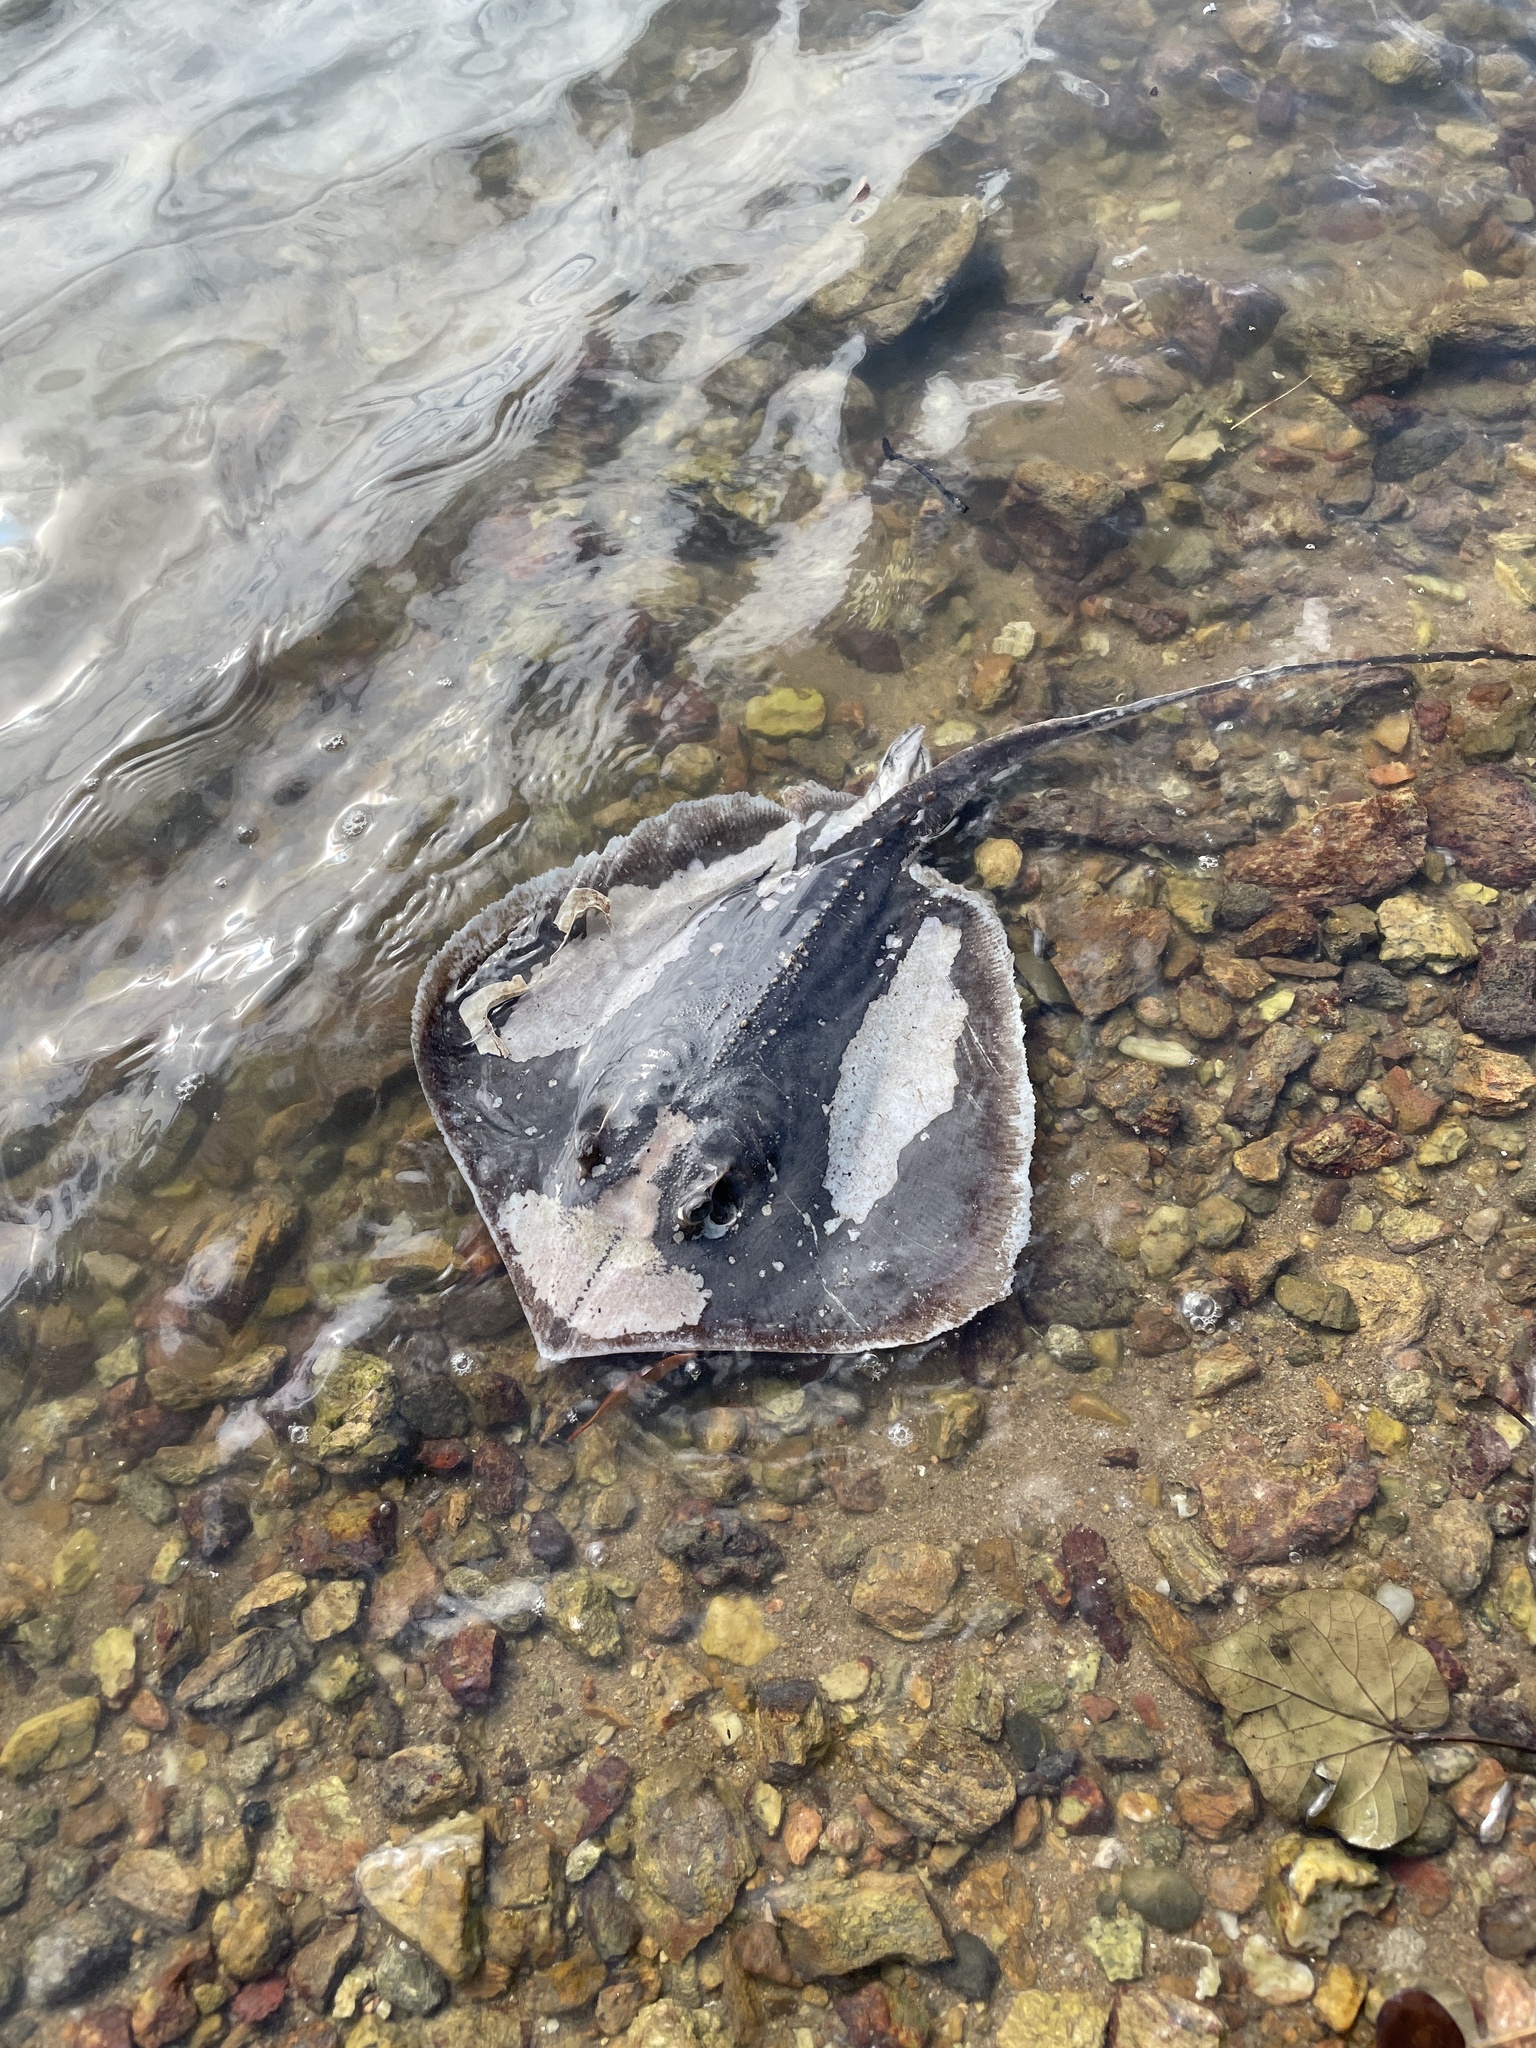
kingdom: Animalia
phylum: Chordata
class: Elasmobranchii
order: Myliobatiformes
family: Dasyatidae
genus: Hemitrygon
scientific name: Hemitrygon bennettii
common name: Bennett's stingray
